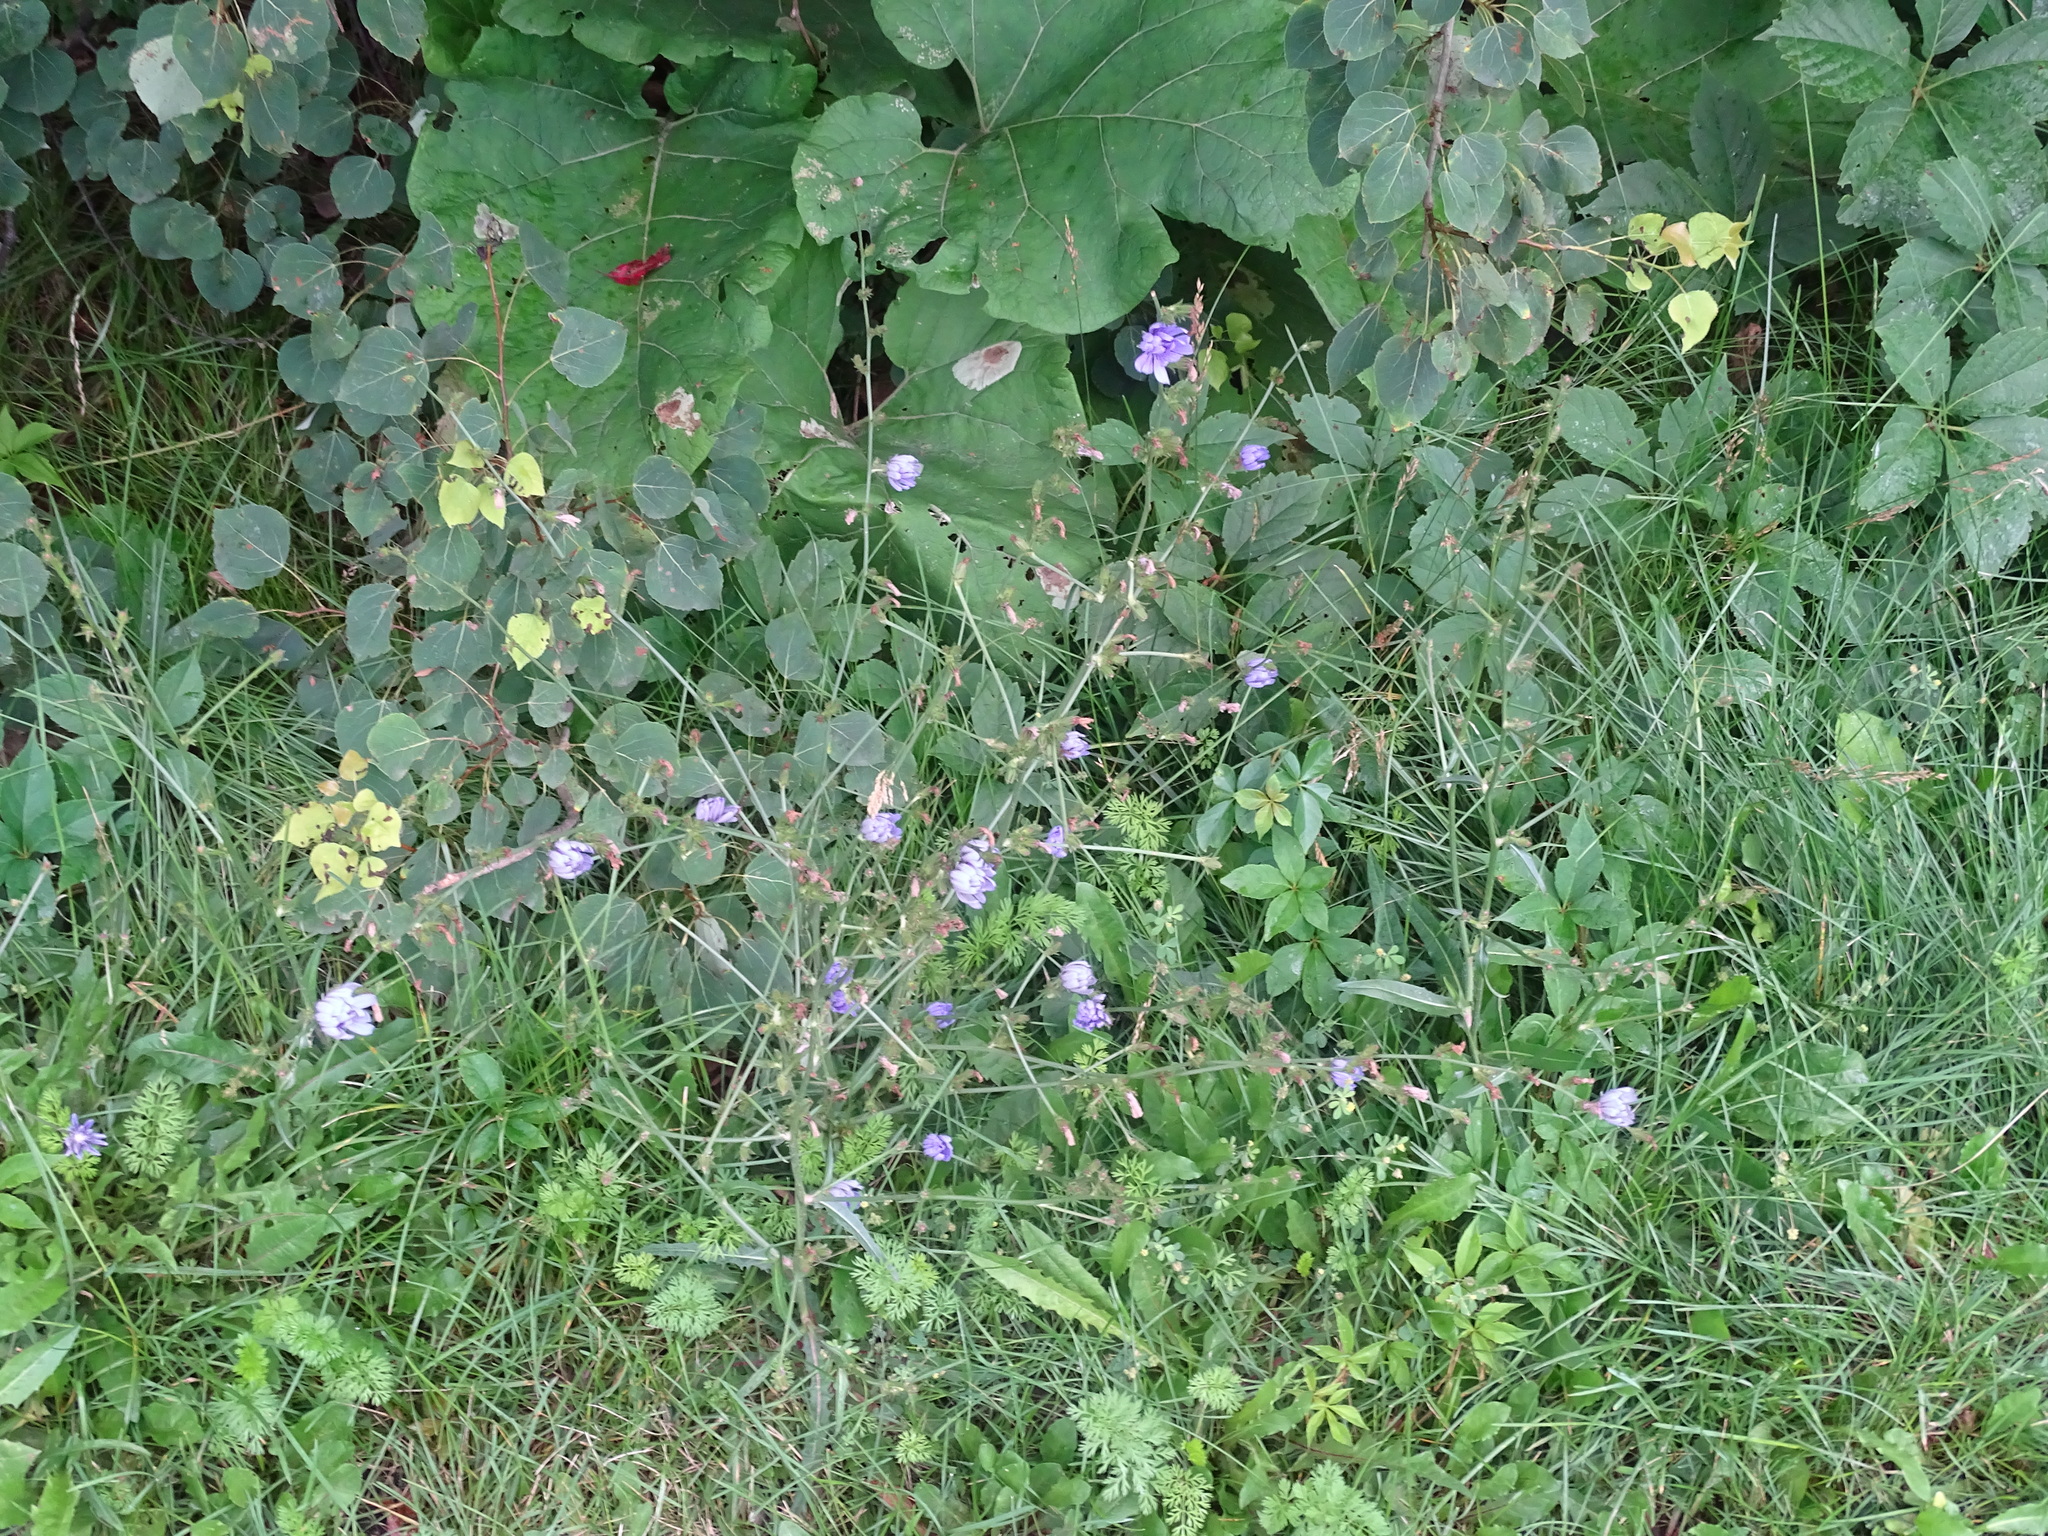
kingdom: Plantae
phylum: Tracheophyta
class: Magnoliopsida
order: Asterales
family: Asteraceae
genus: Cichorium
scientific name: Cichorium intybus
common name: Chicory
